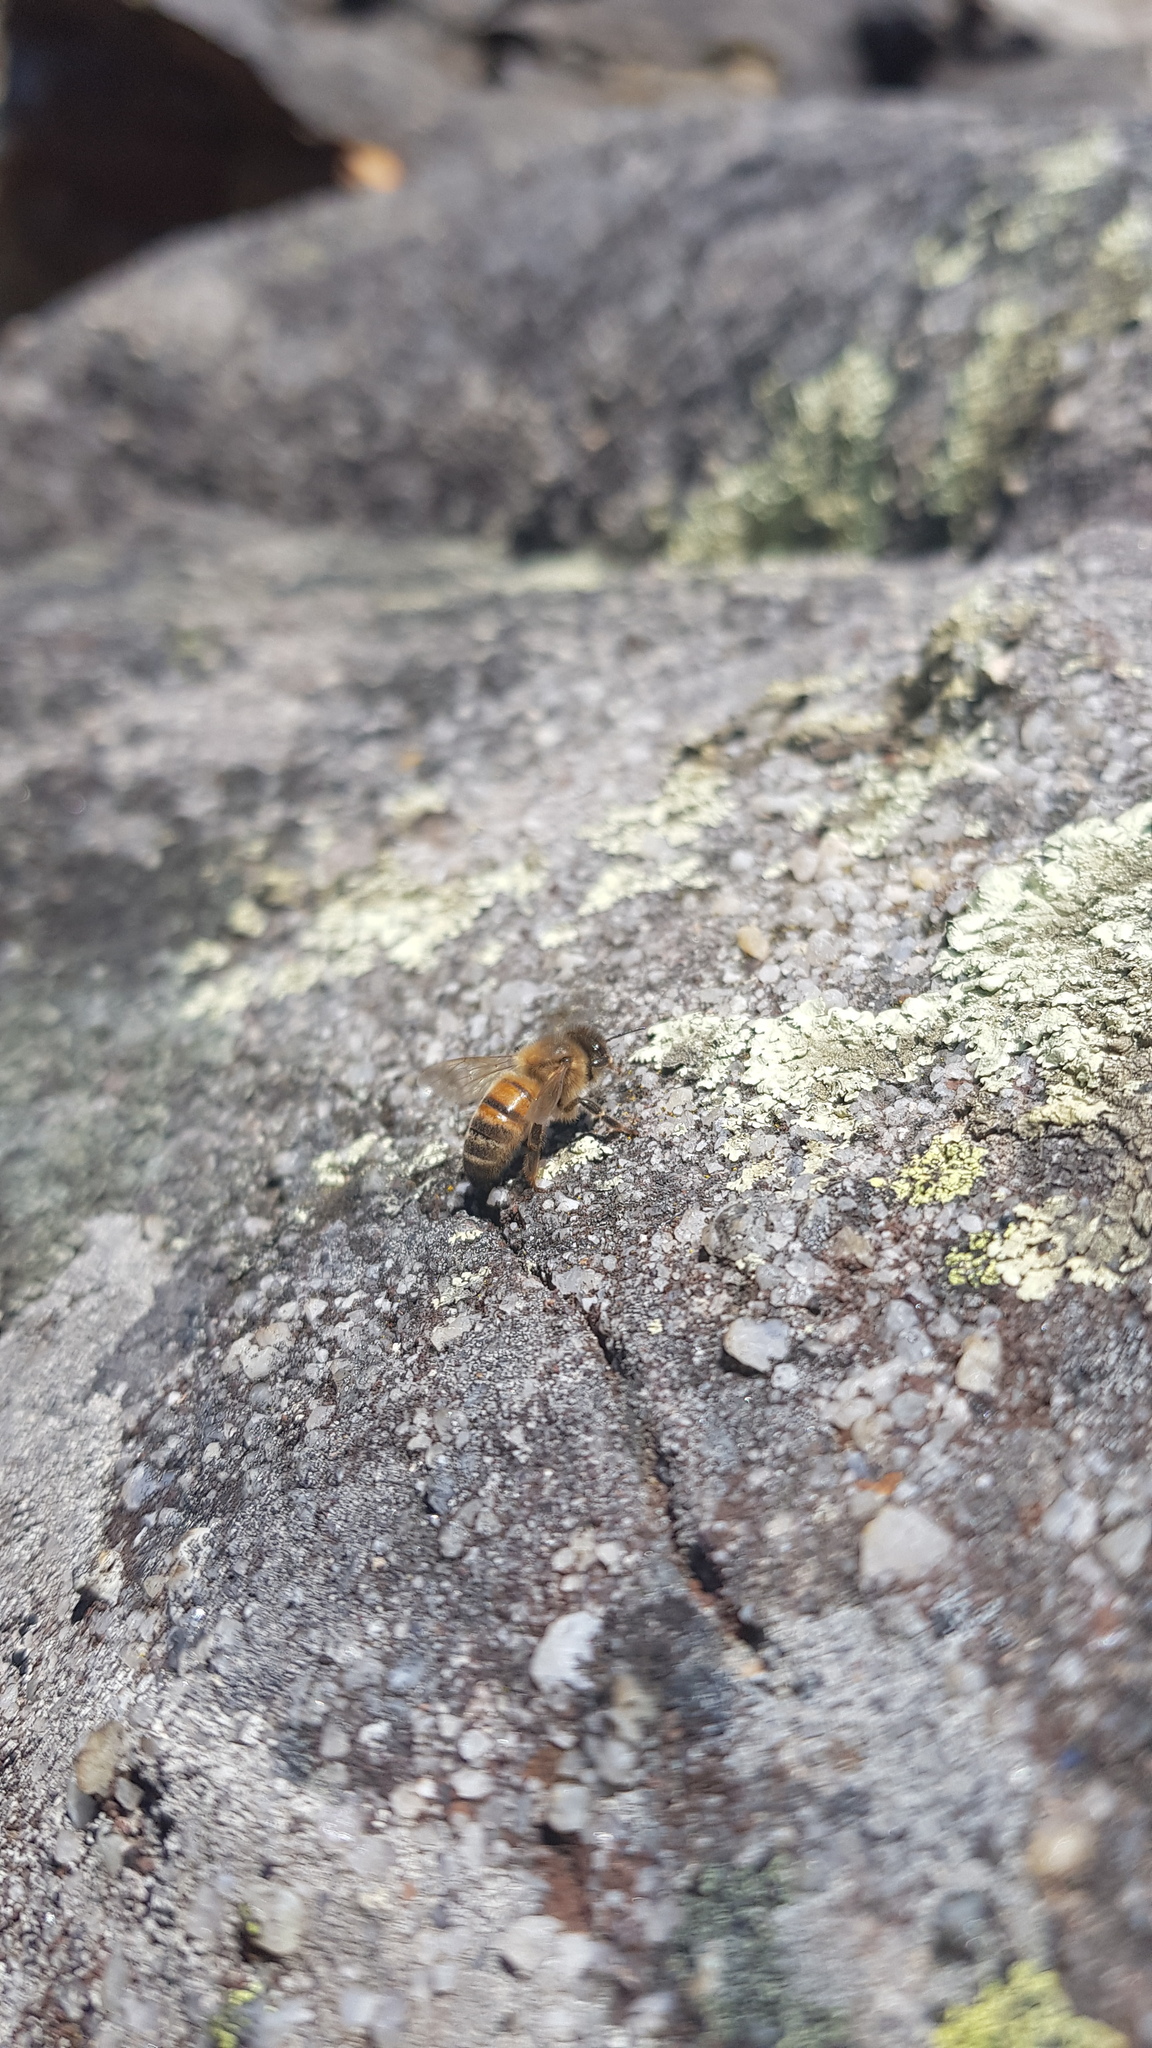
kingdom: Animalia
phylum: Arthropoda
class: Insecta
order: Hymenoptera
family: Apidae
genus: Apis
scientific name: Apis mellifera
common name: Honey bee
